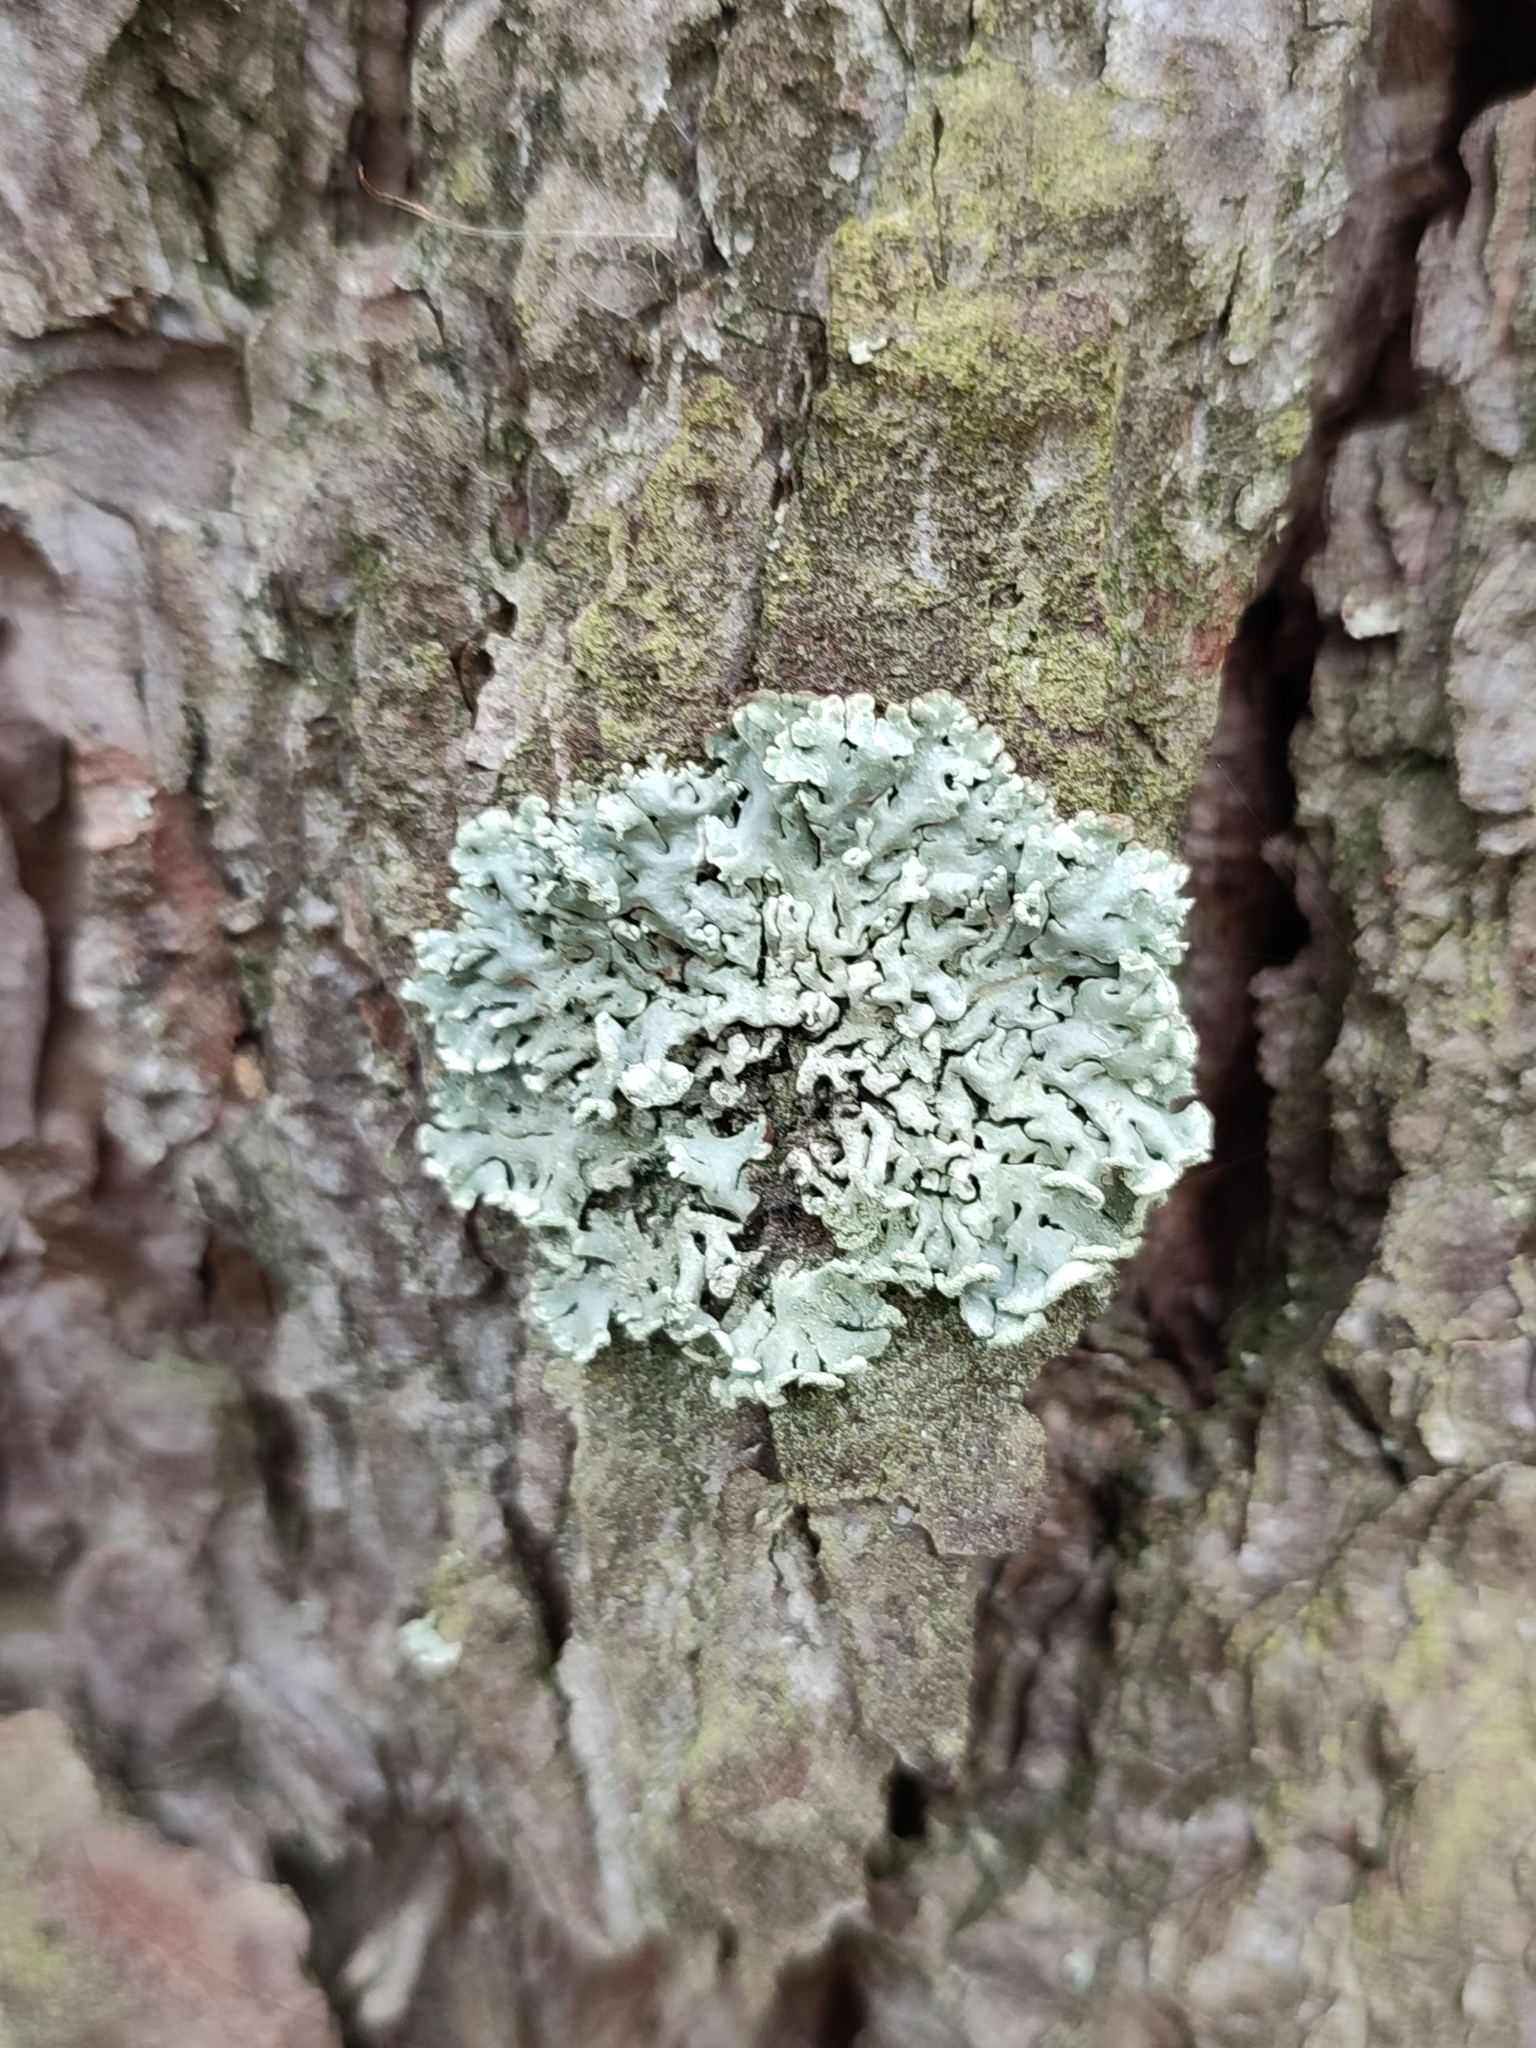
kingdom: Fungi
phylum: Ascomycota
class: Lecanoromycetes
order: Lecanorales
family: Parmeliaceae
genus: Hypogymnia
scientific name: Hypogymnia physodes
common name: Dark crottle
